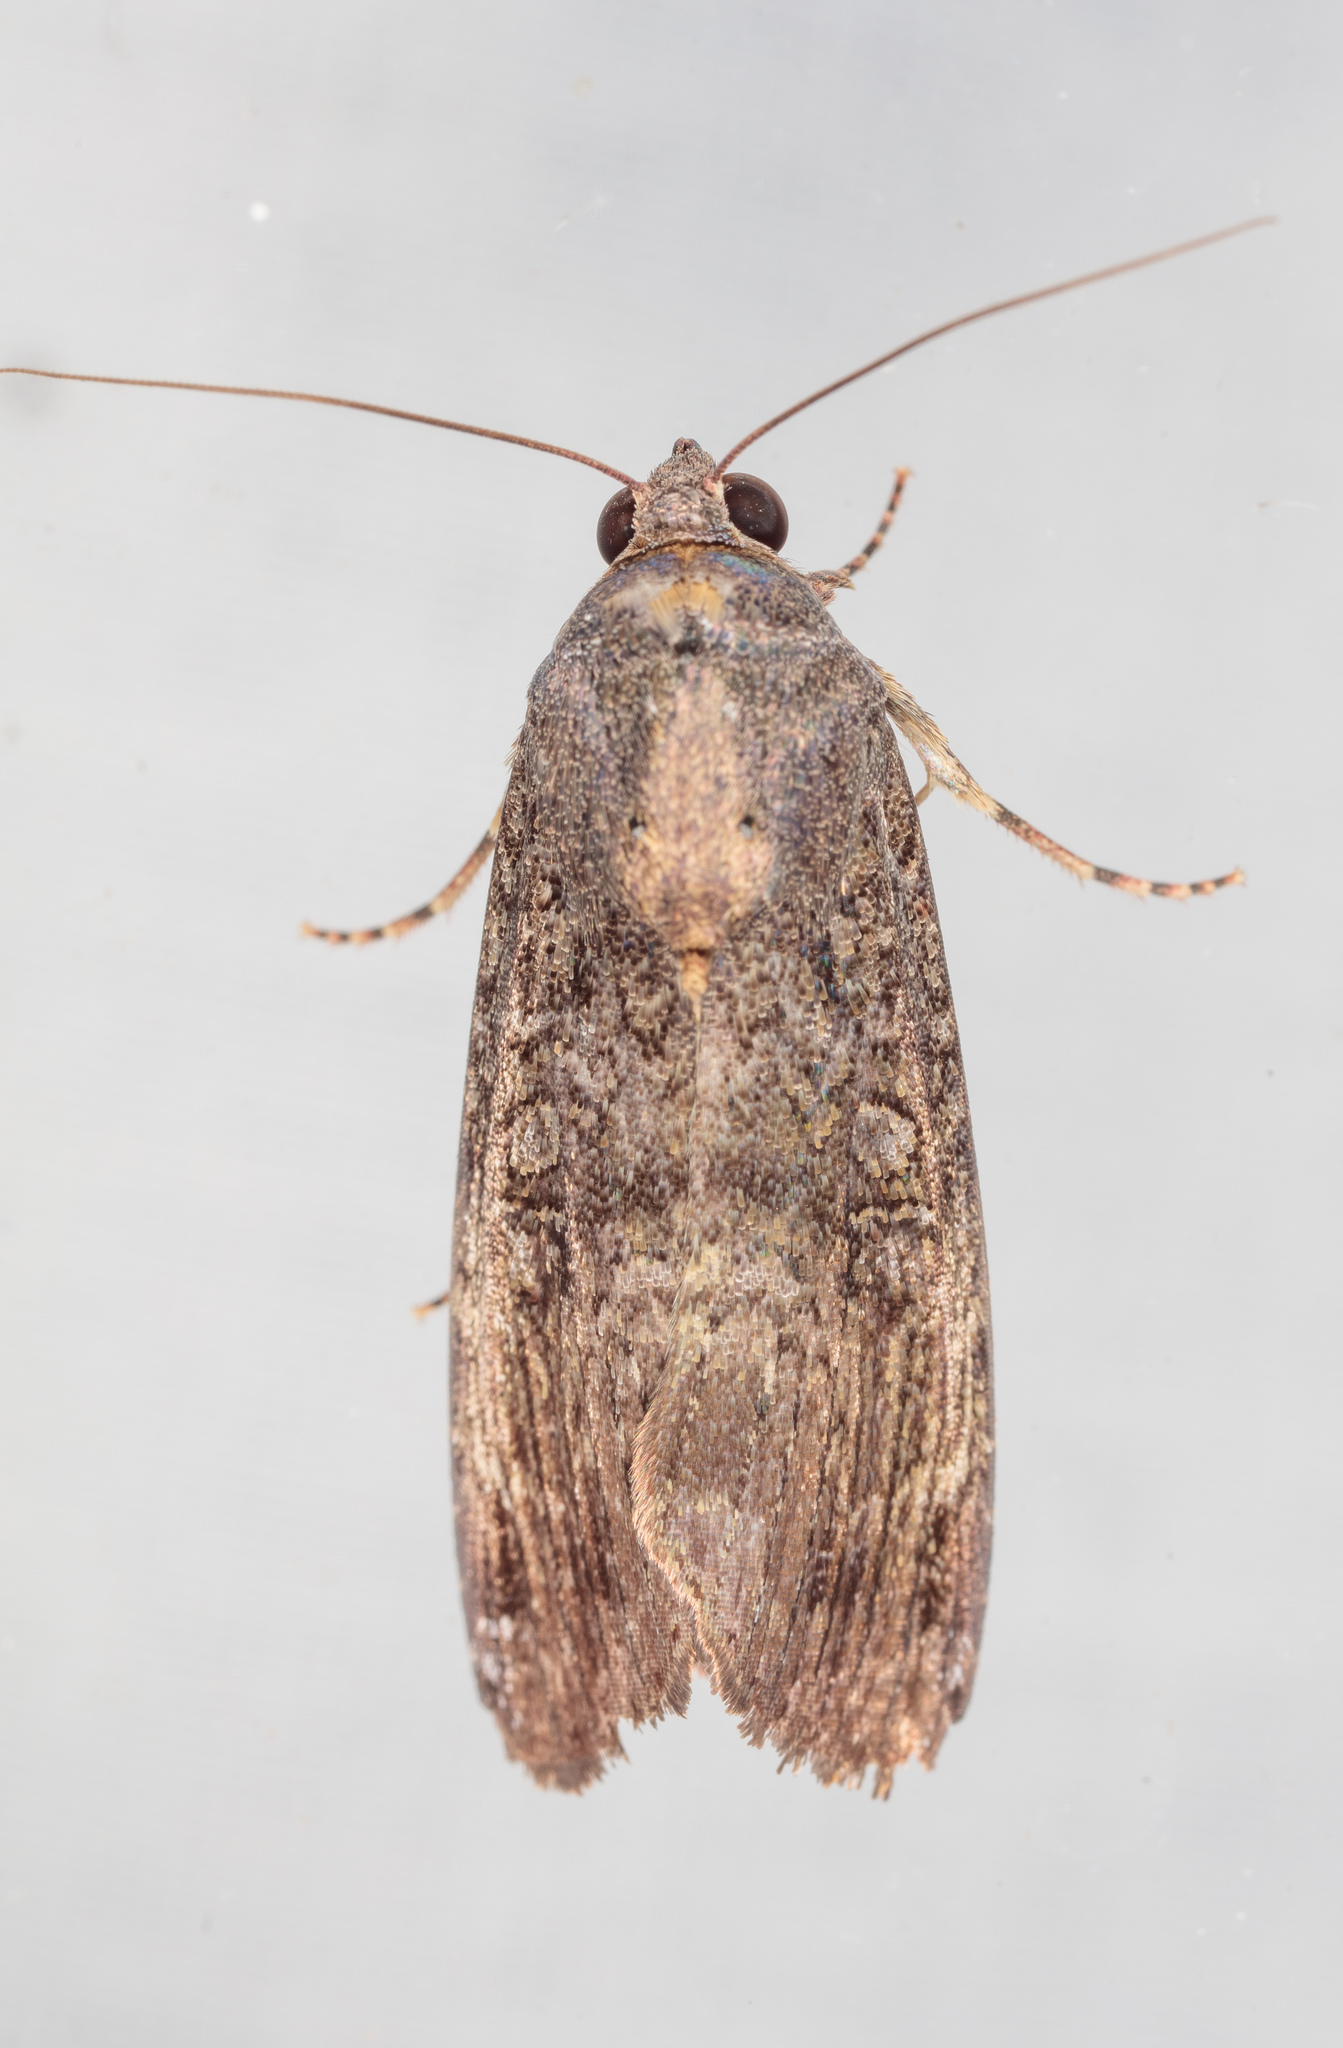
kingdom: Animalia
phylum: Arthropoda
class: Insecta
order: Lepidoptera
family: Noctuidae
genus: Magusa
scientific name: Magusa divaricata
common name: Orb narrow-winged moth
